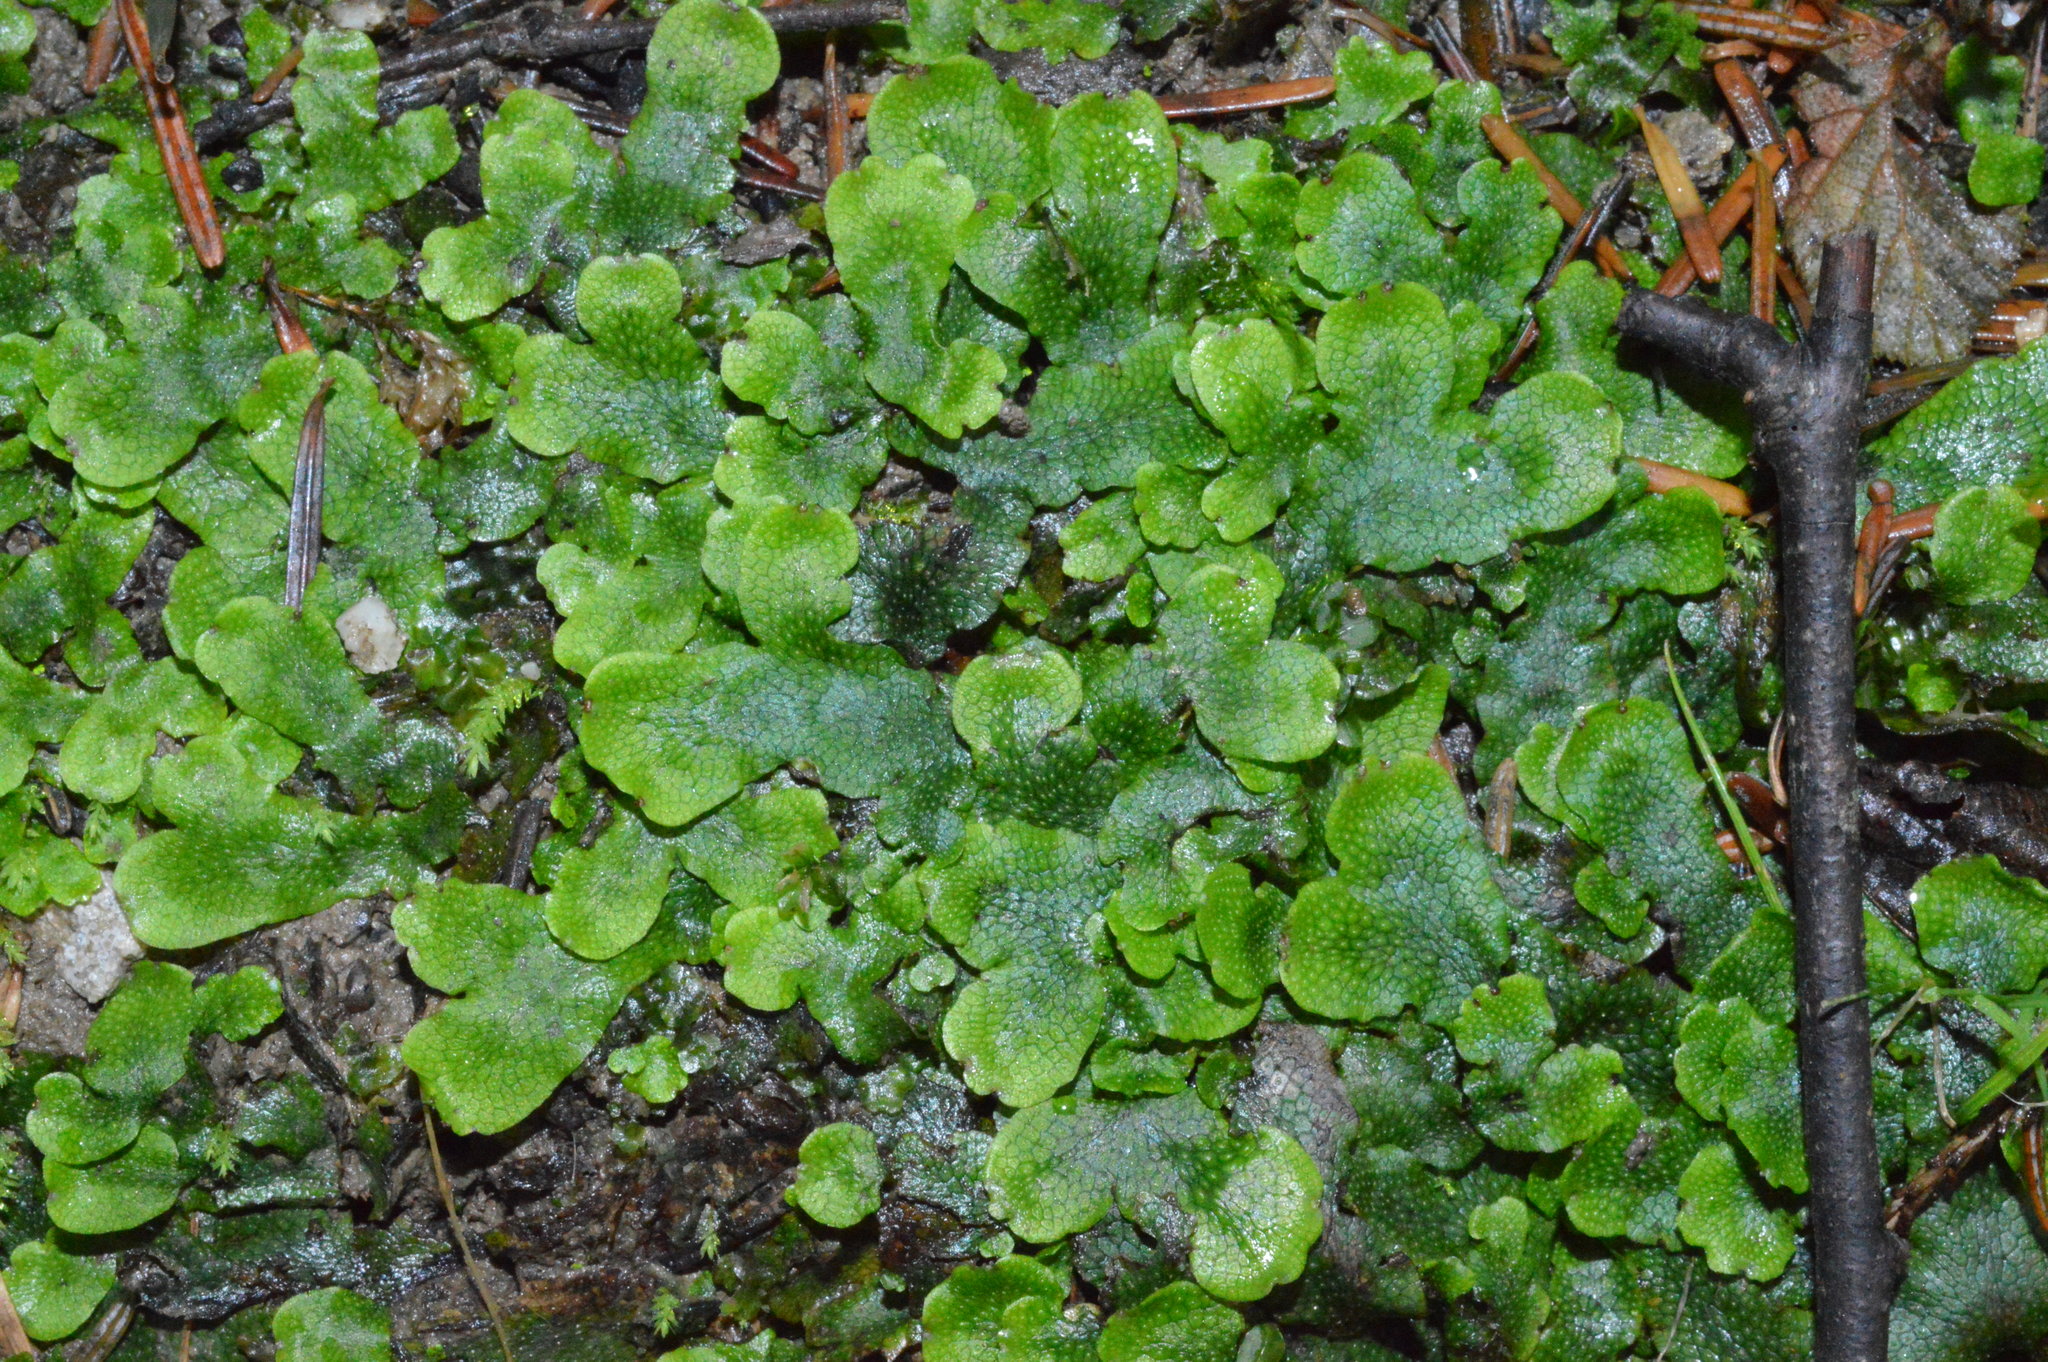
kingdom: Plantae
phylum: Marchantiophyta
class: Marchantiopsida
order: Marchantiales
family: Conocephalaceae
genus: Conocephalum
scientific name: Conocephalum salebrosum
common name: Cat-tongue liverwort
